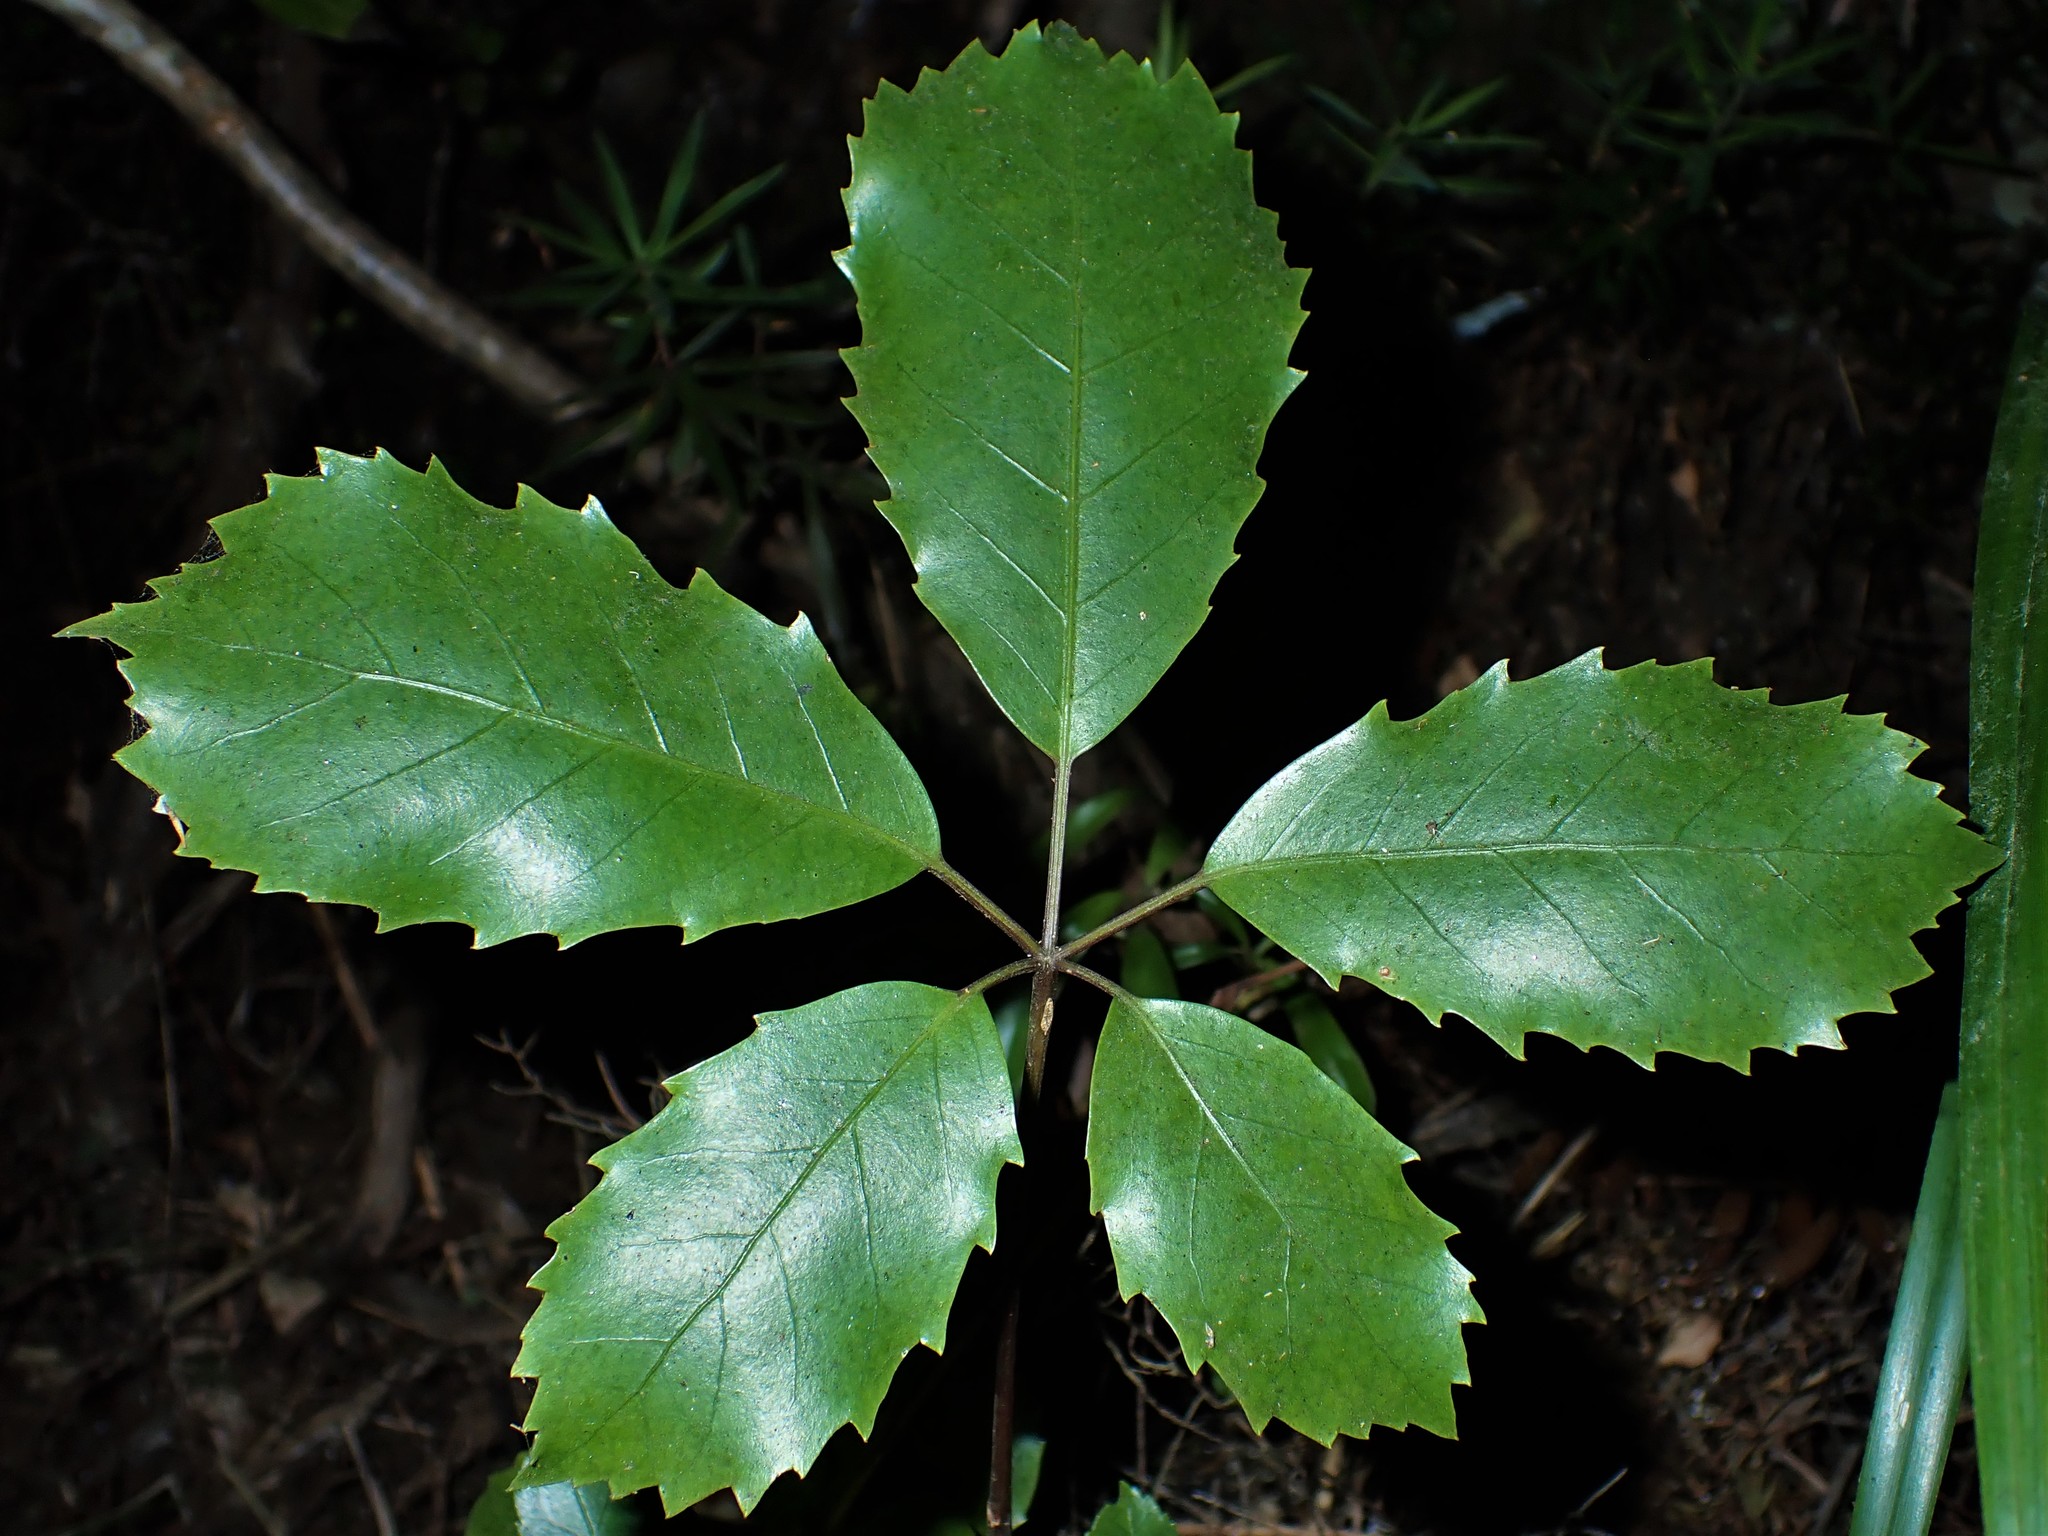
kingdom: Plantae
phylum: Tracheophyta
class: Magnoliopsida
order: Apiales
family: Araliaceae
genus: Neopanax
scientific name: Neopanax arboreus
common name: Five-fingers
